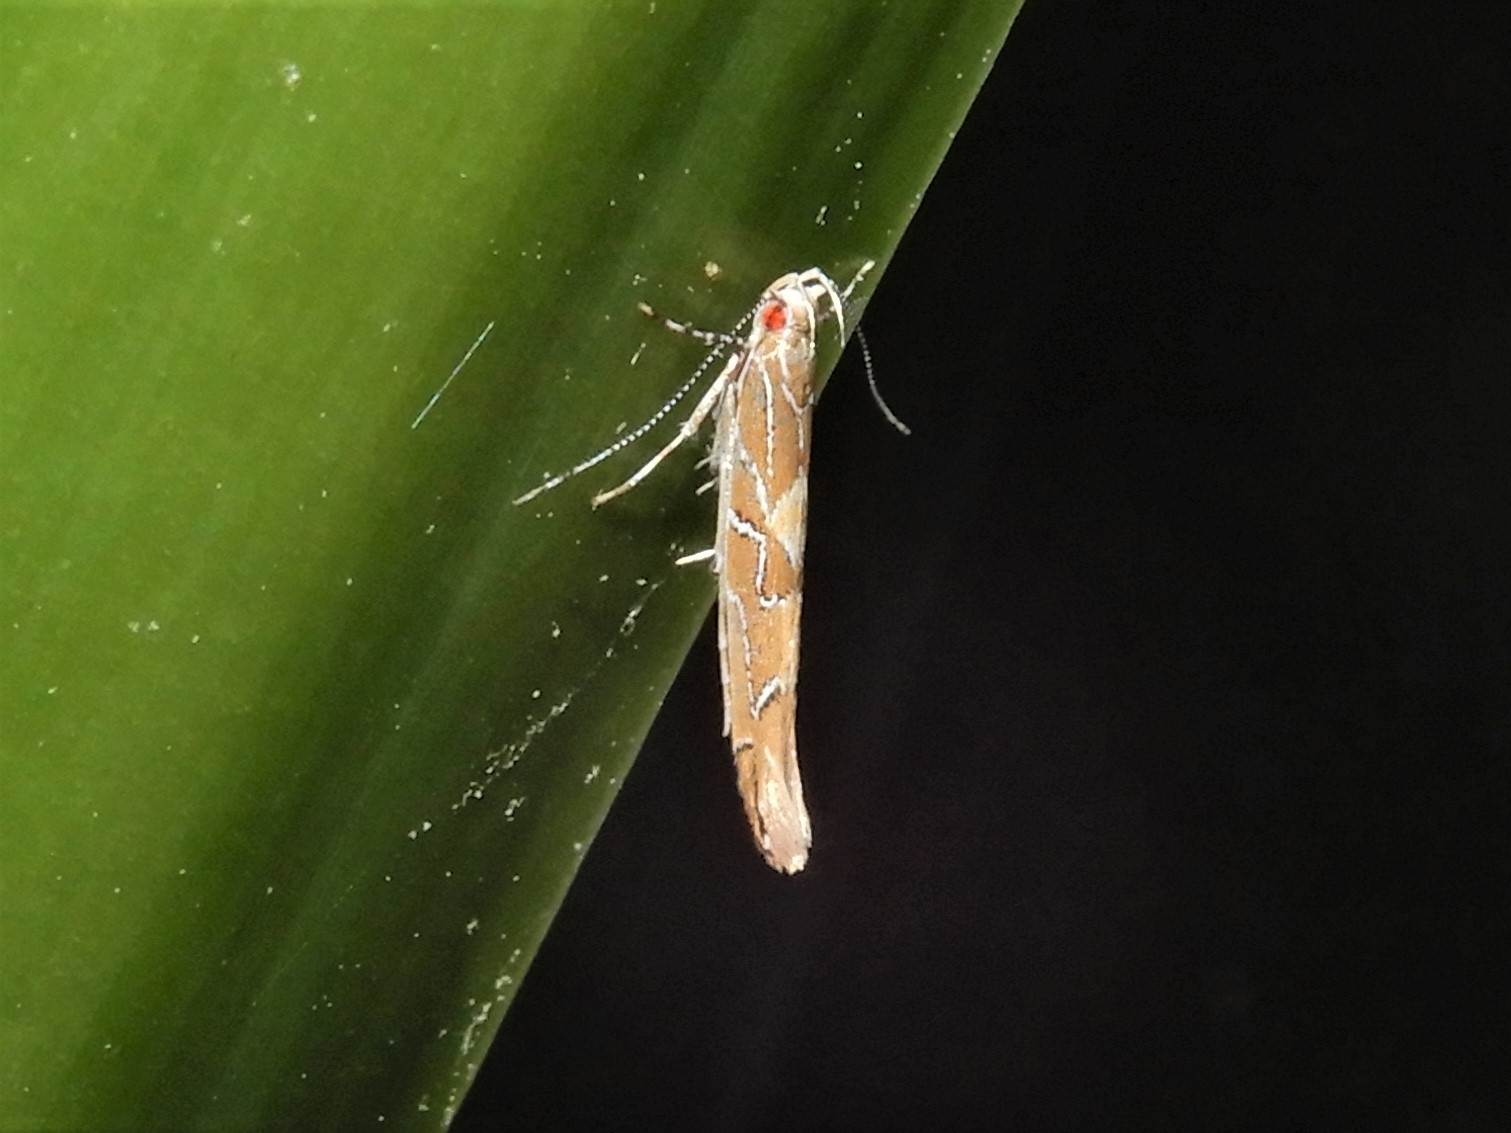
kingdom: Animalia
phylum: Arthropoda
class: Insecta
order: Lepidoptera
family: Cosmopterigidae
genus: Pyroderces
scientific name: Pyroderces apparitella
